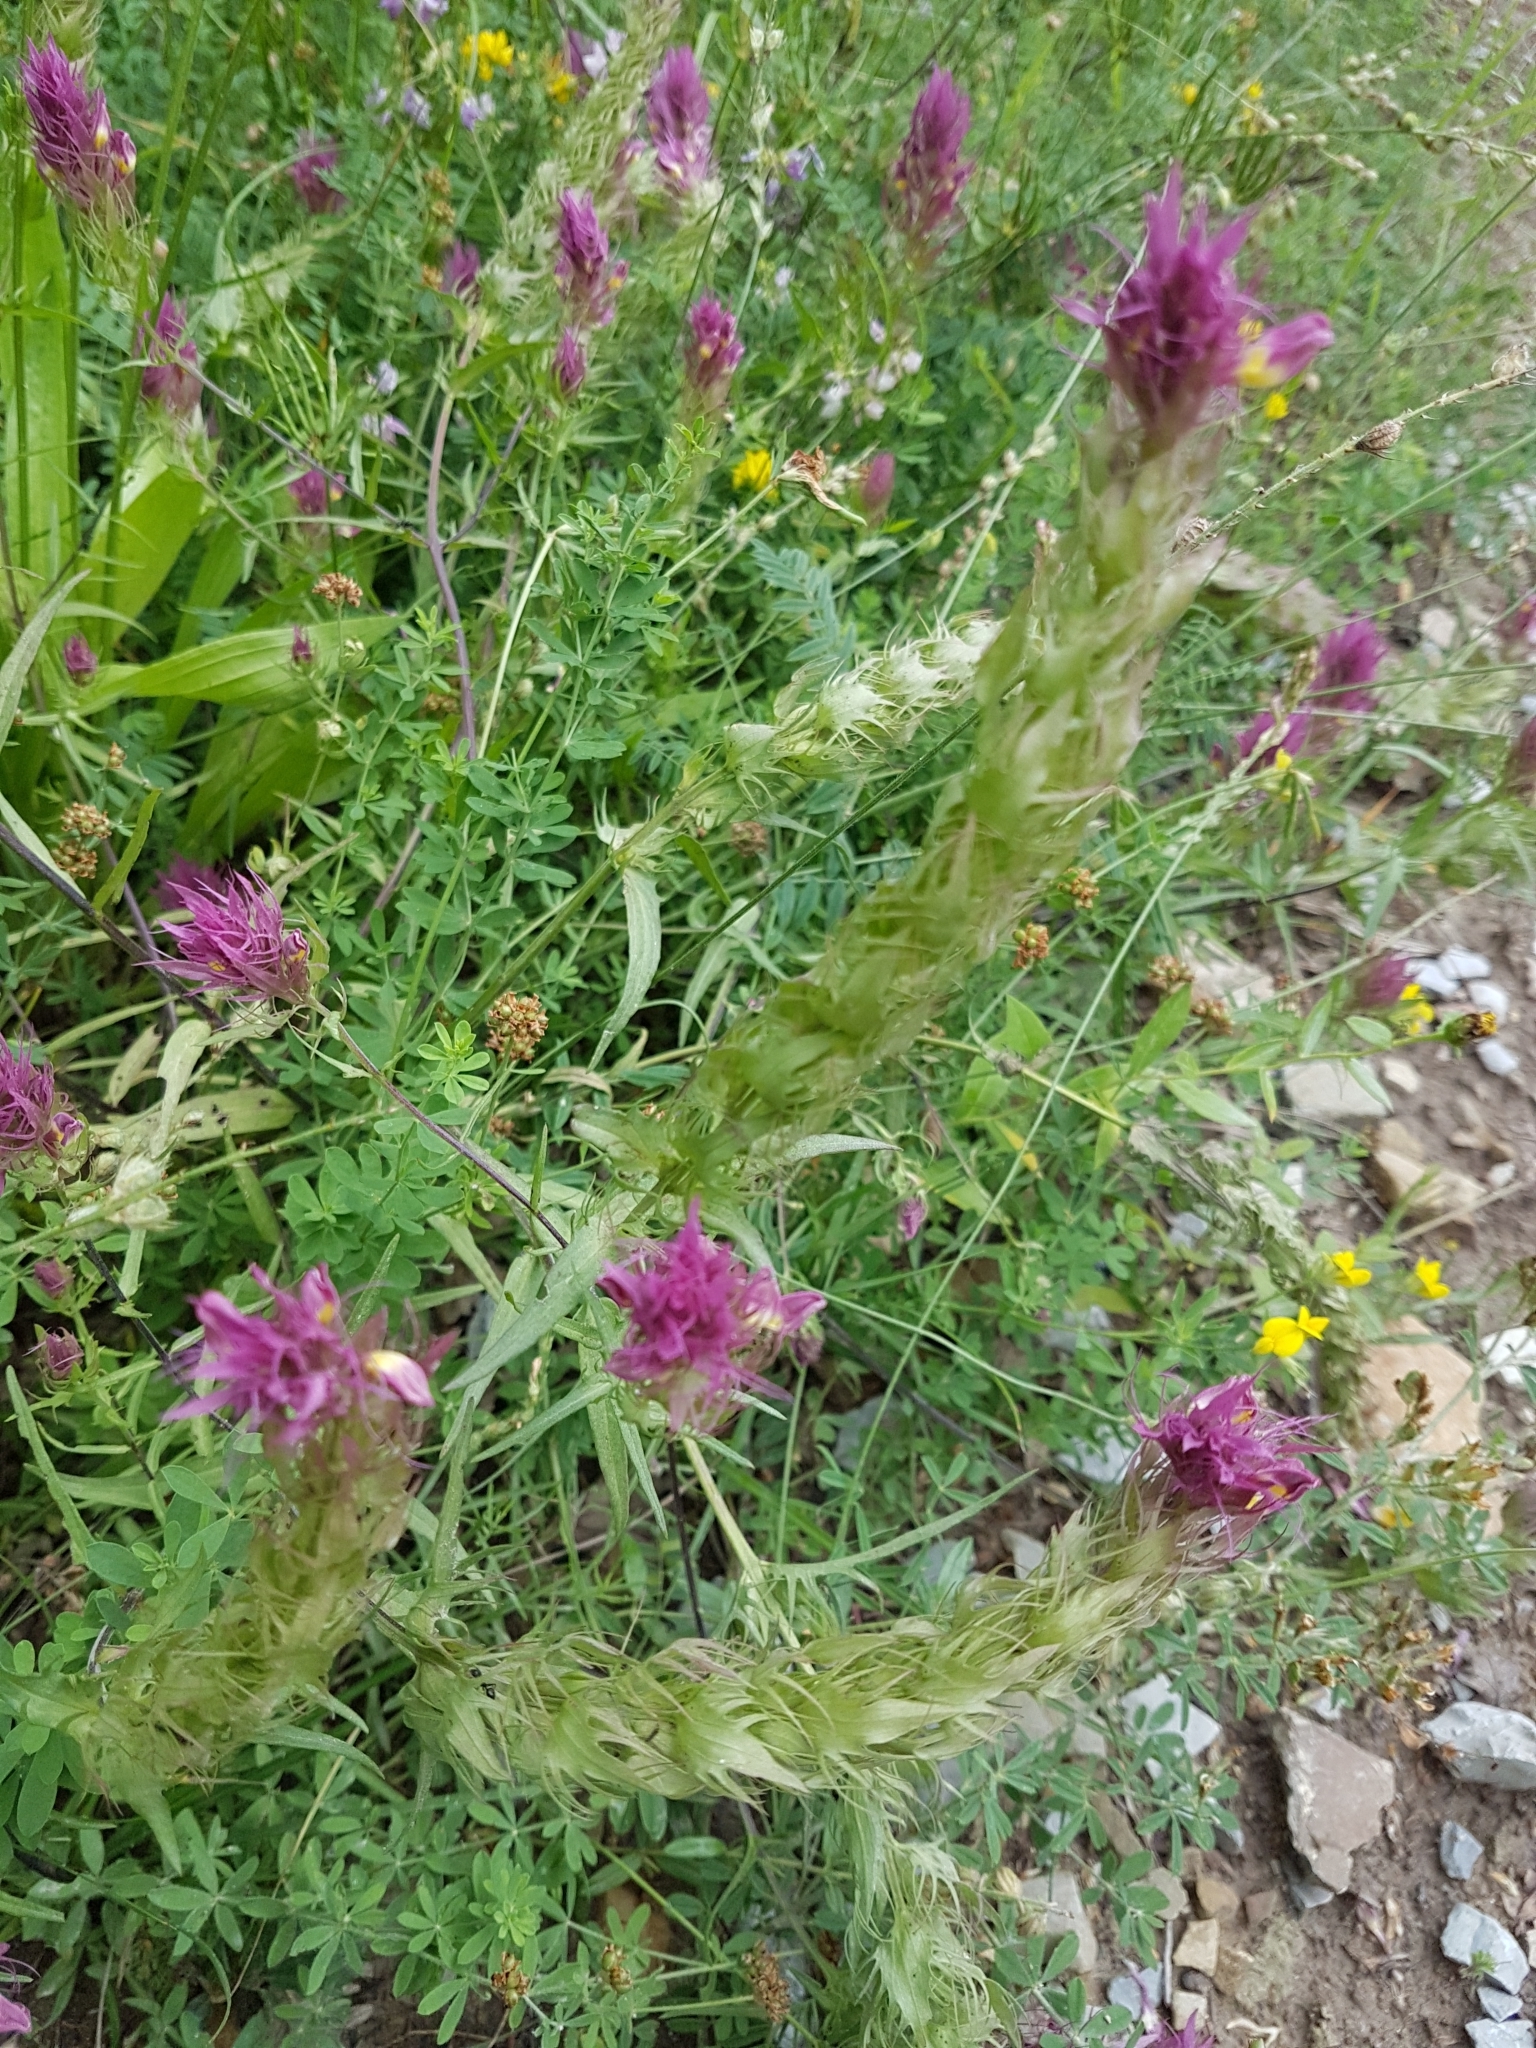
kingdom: Plantae
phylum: Tracheophyta
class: Magnoliopsida
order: Lamiales
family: Orobanchaceae
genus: Melampyrum
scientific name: Melampyrum arvense
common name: Field cow-wheat
